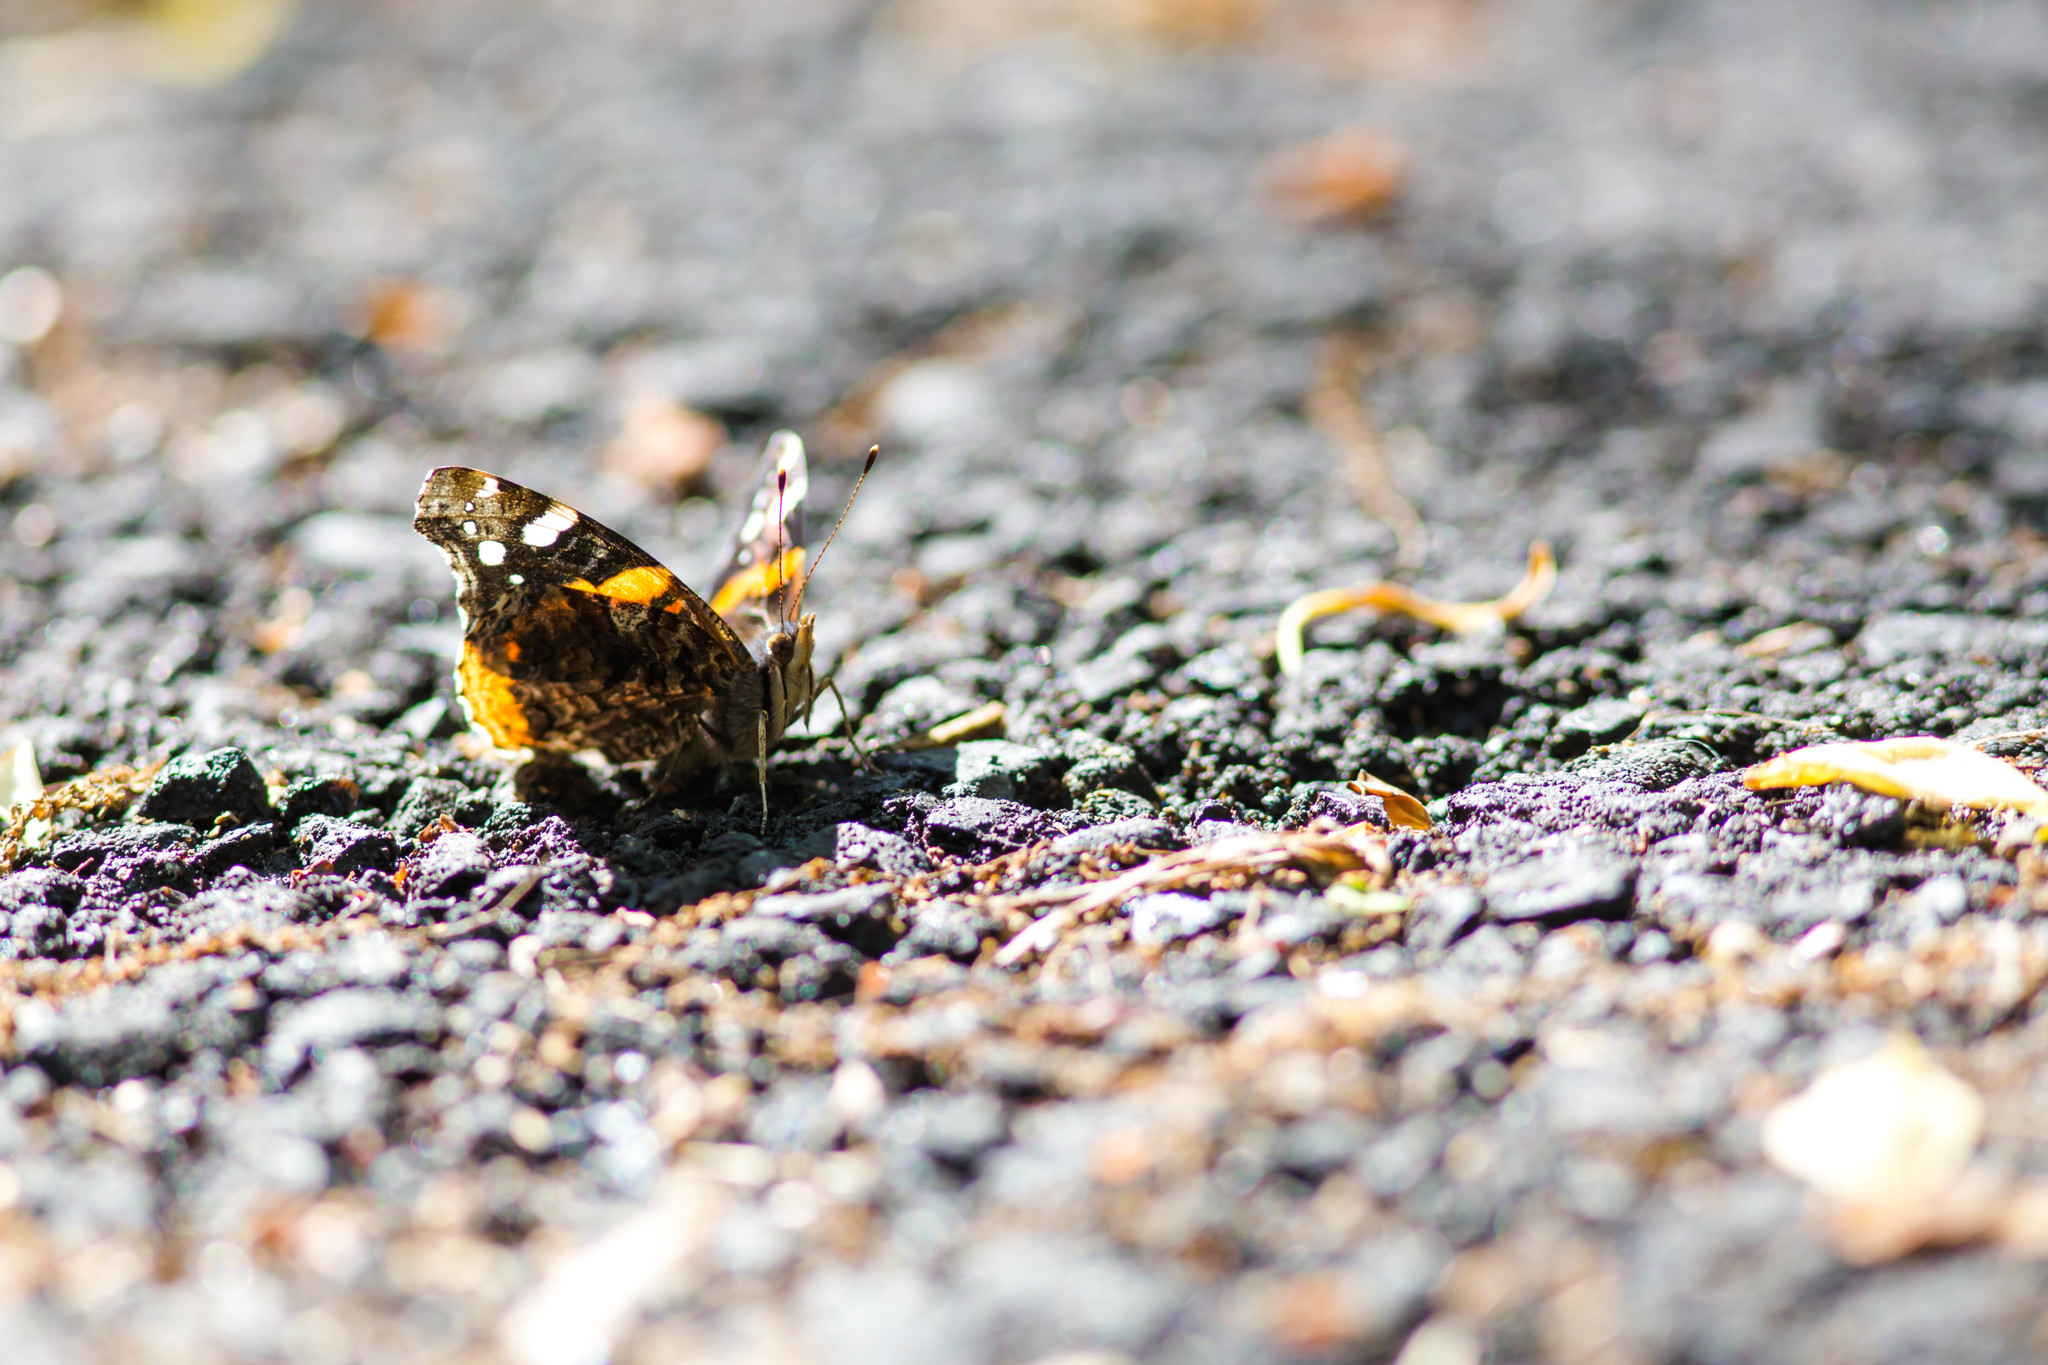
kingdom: Animalia
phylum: Arthropoda
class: Insecta
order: Lepidoptera
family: Nymphalidae
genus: Vanessa
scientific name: Vanessa atalanta
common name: Red admiral
